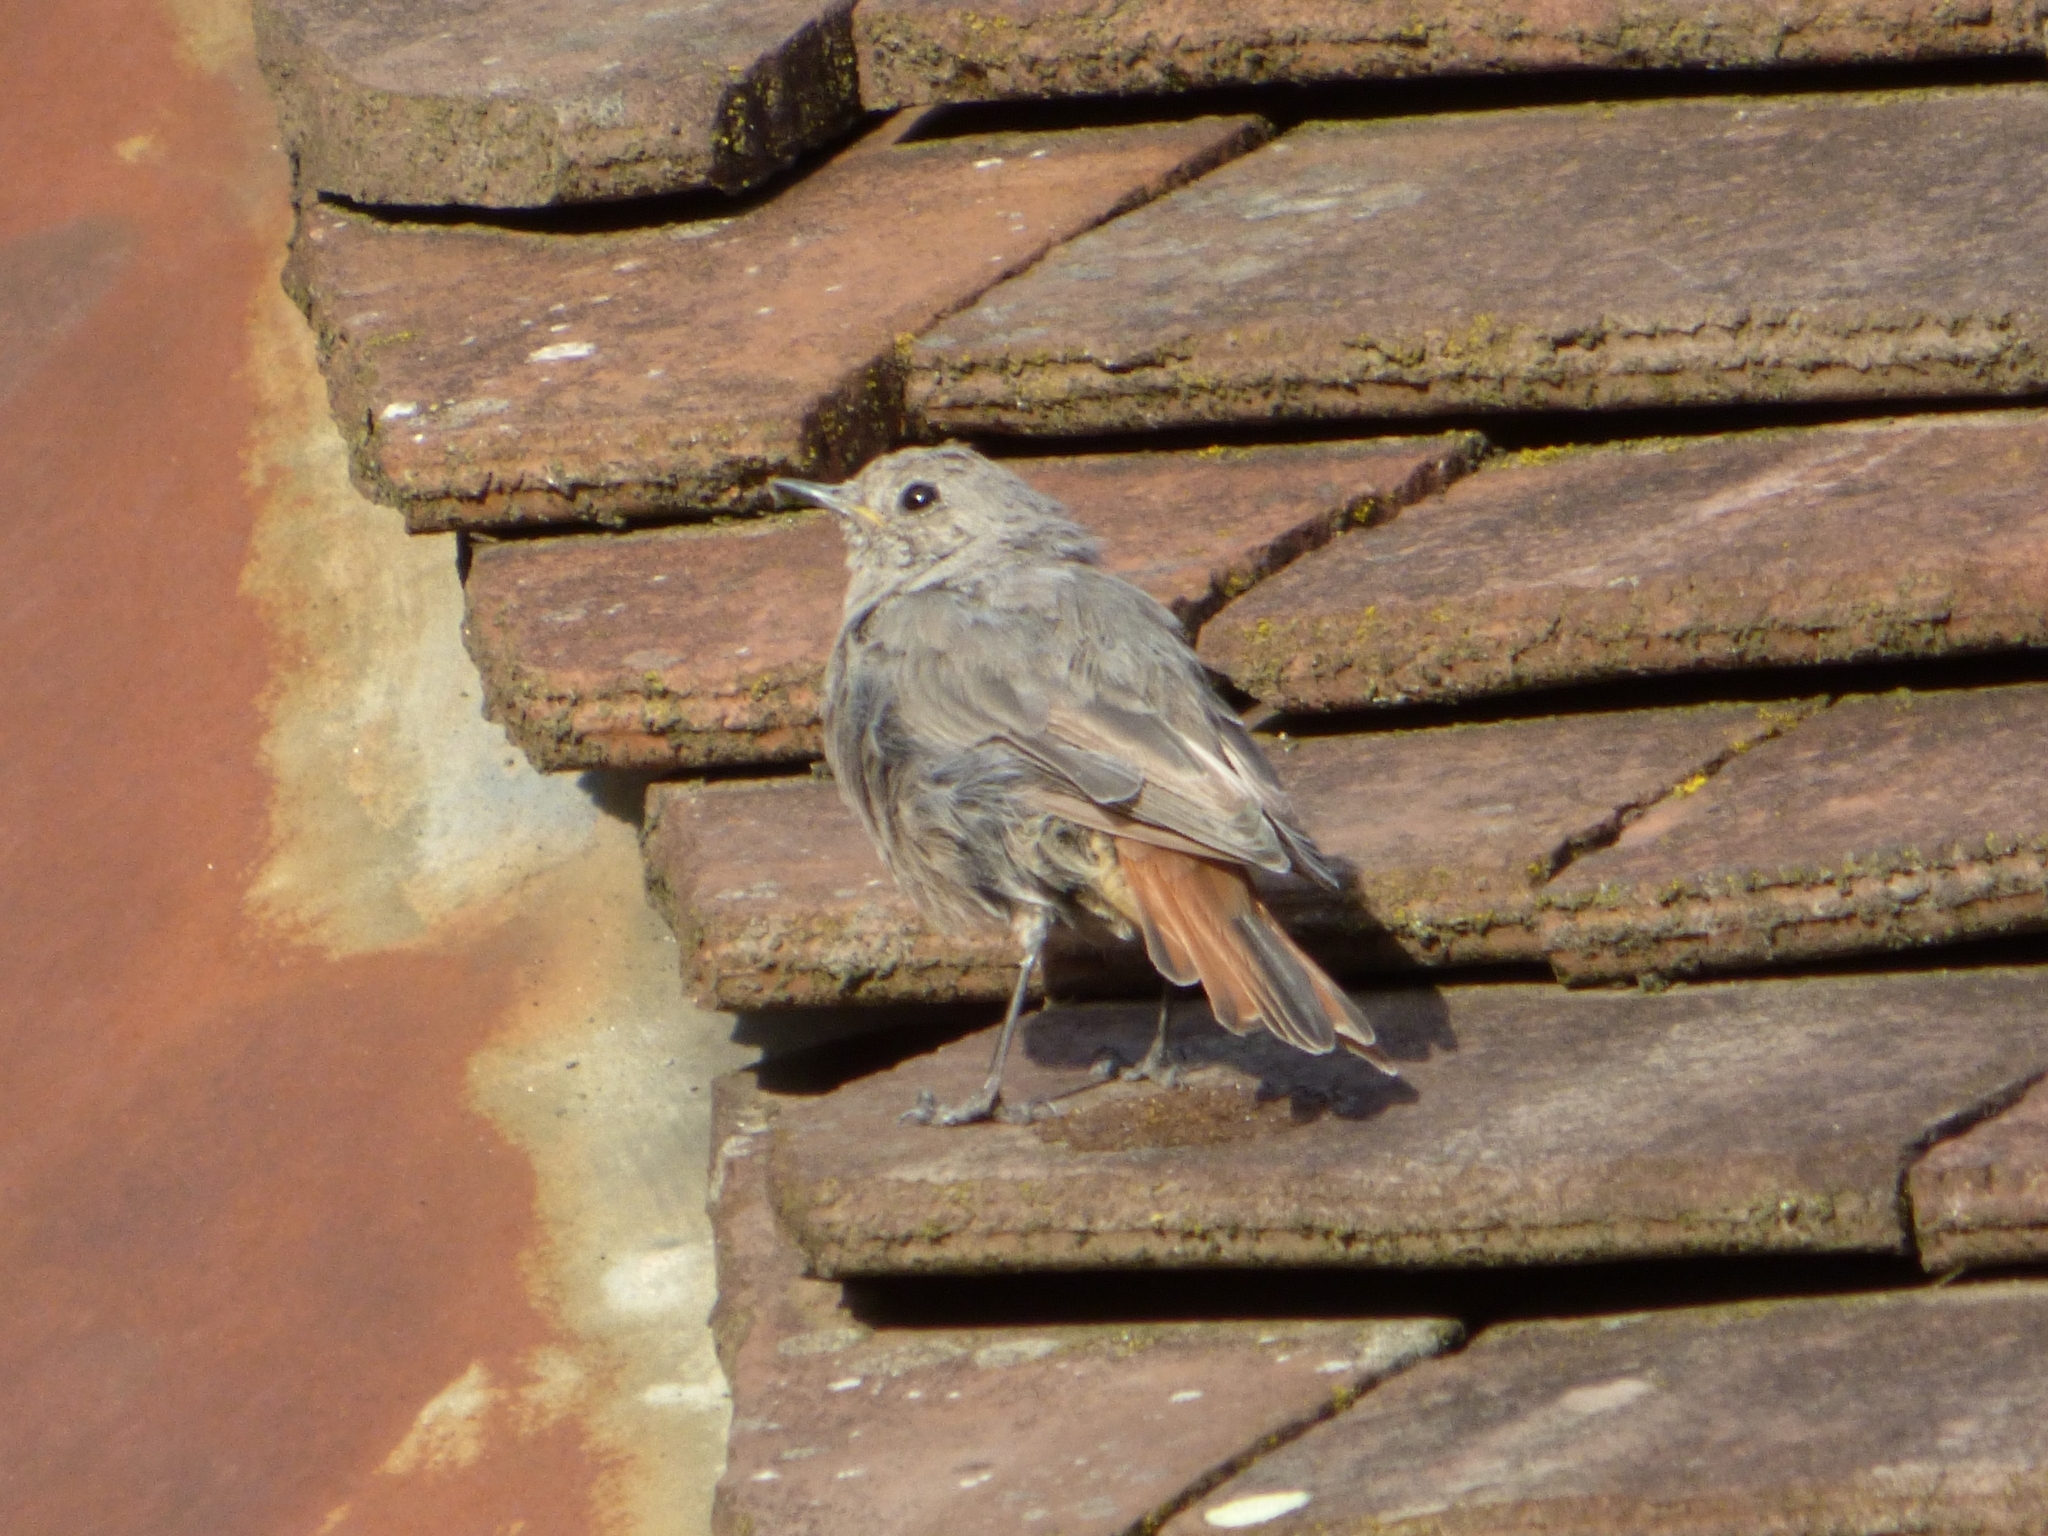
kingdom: Animalia
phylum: Chordata
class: Aves
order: Passeriformes
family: Muscicapidae
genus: Phoenicurus
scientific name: Phoenicurus ochruros
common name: Black redstart
